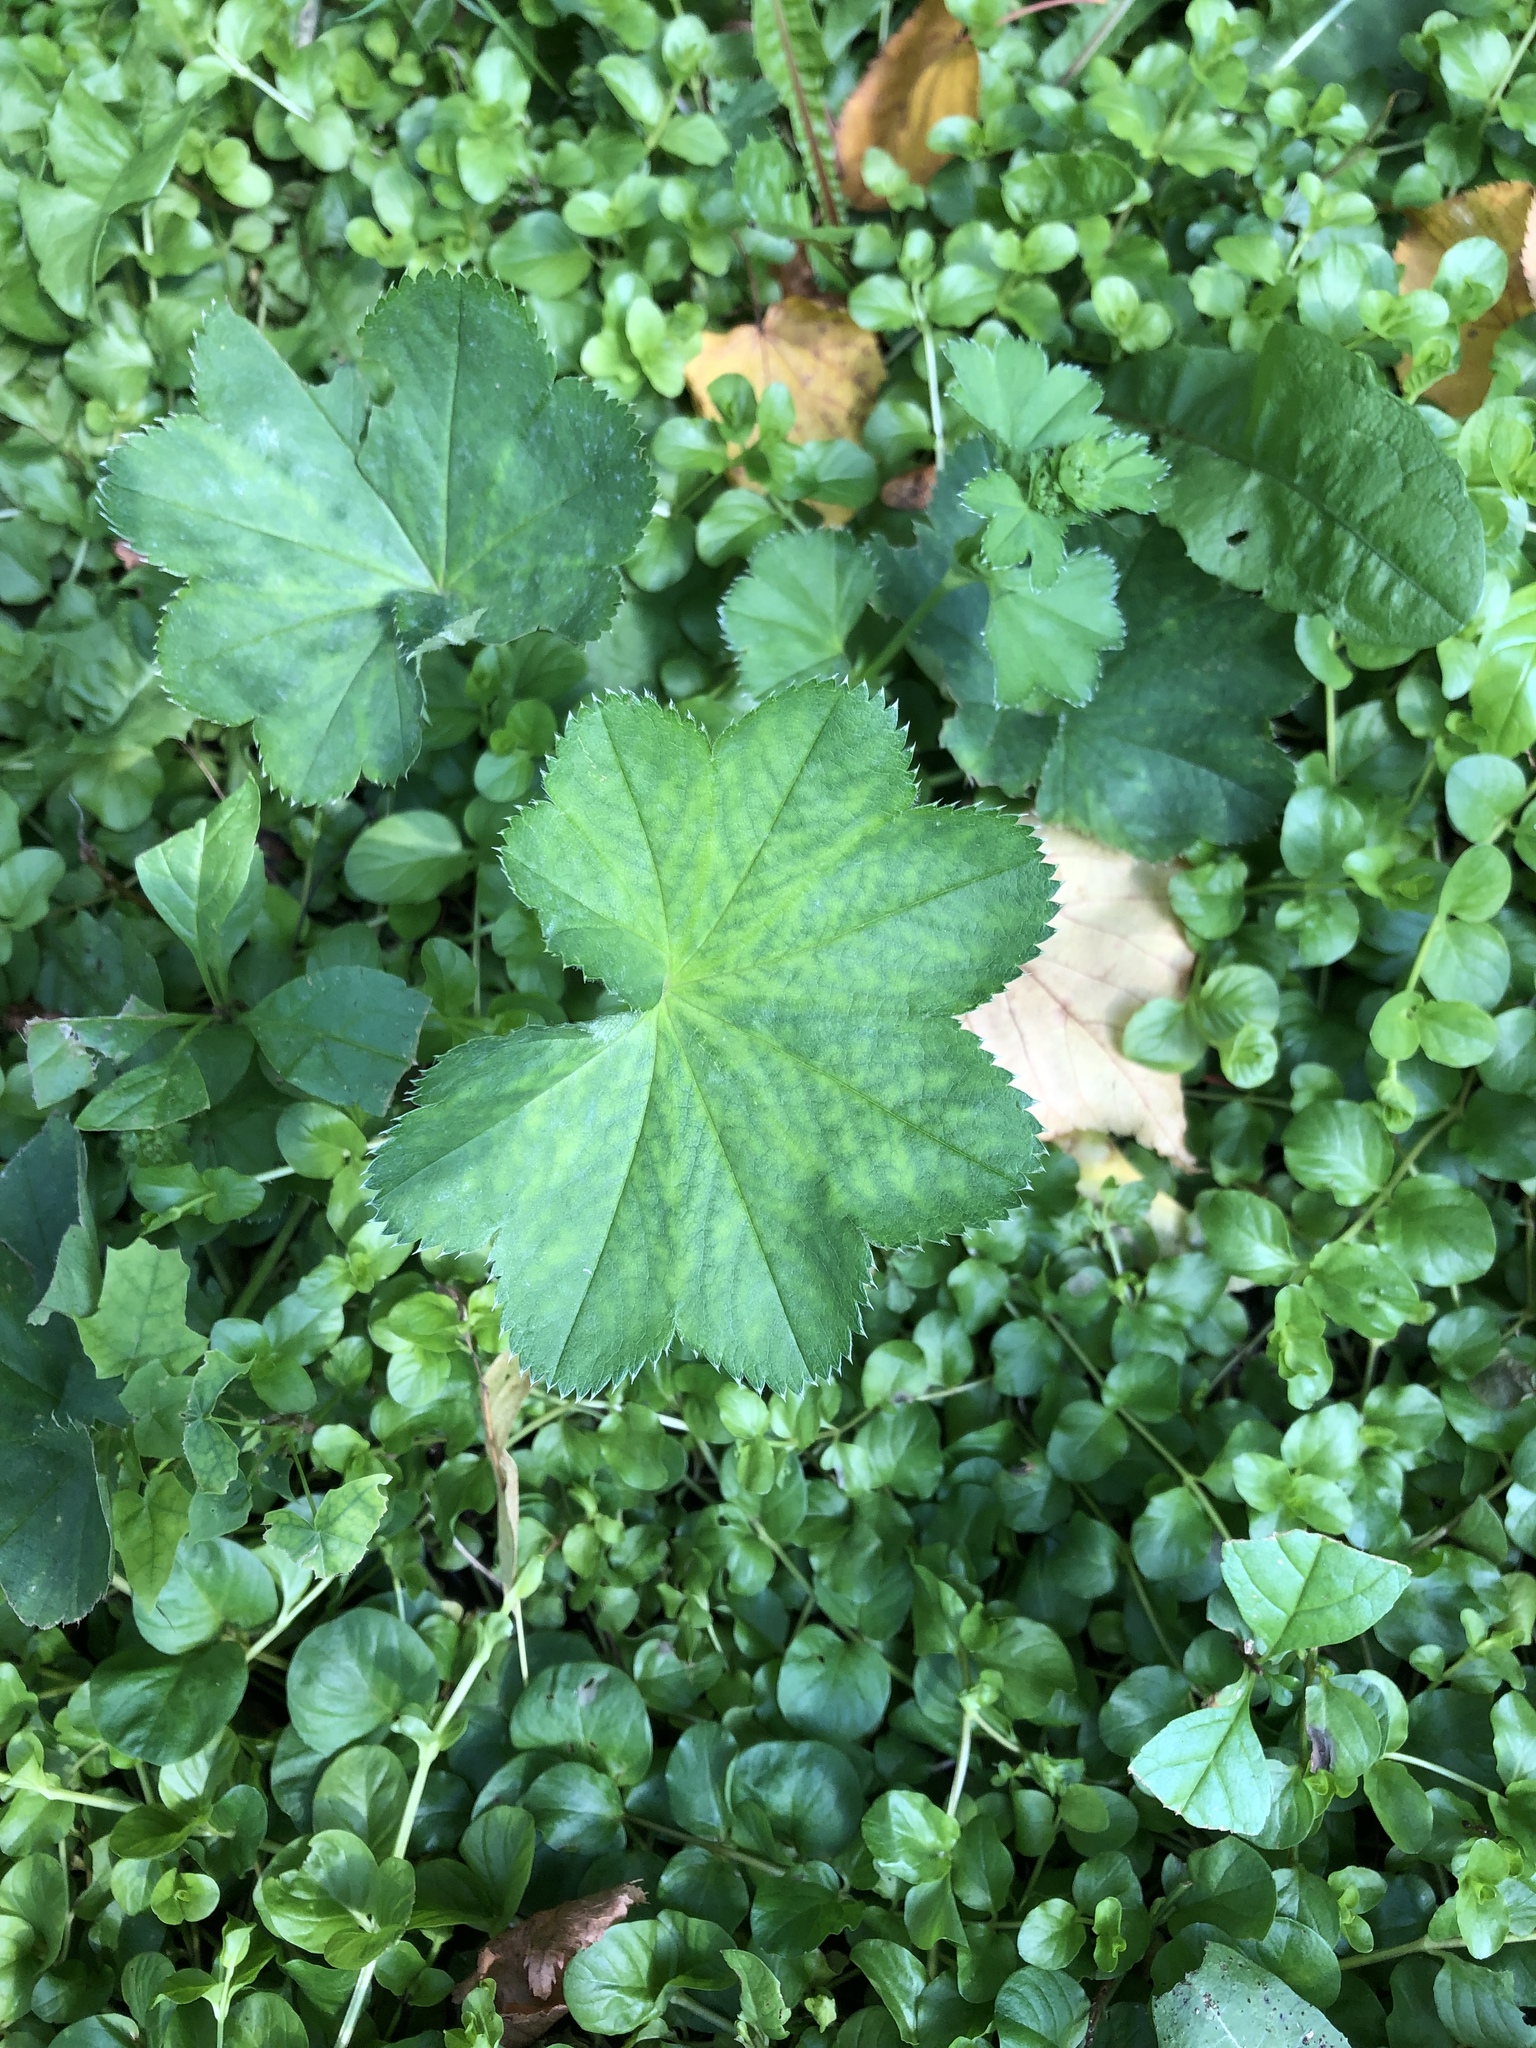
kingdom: Plantae
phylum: Tracheophyta
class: Magnoliopsida
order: Rosales
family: Rosaceae
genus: Alchemilla
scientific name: Alchemilla
